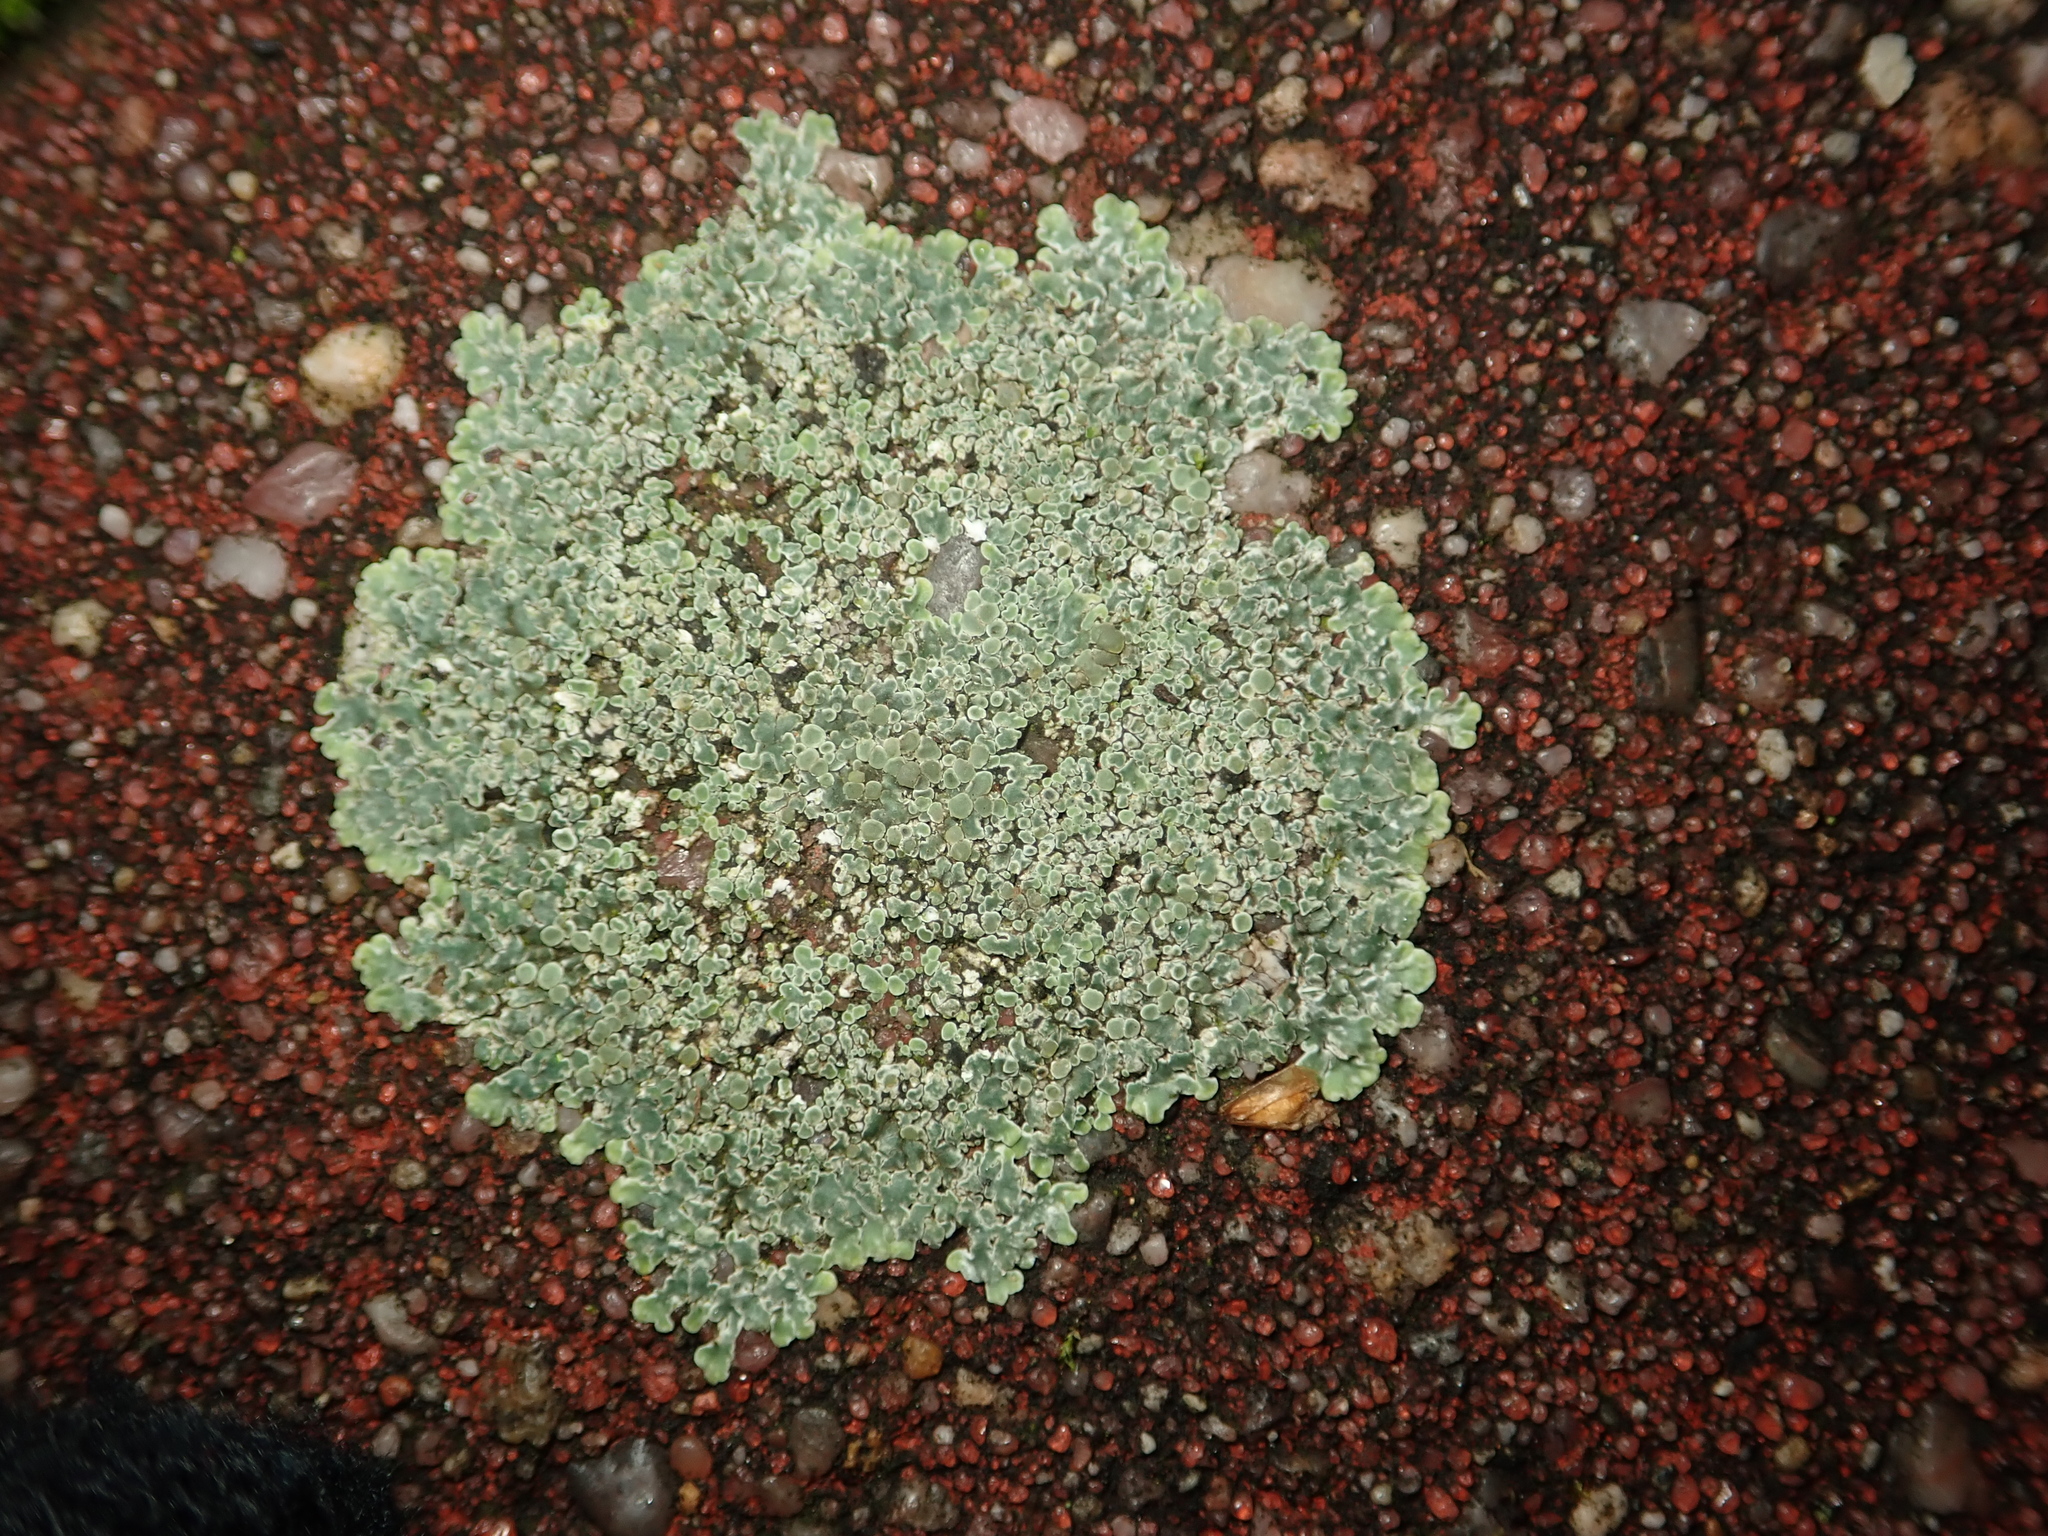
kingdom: Fungi
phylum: Ascomycota
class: Lecanoromycetes
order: Lecanorales
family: Lecanoraceae
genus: Protoparmeliopsis
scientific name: Protoparmeliopsis muralis
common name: Stonewall rim lichen
